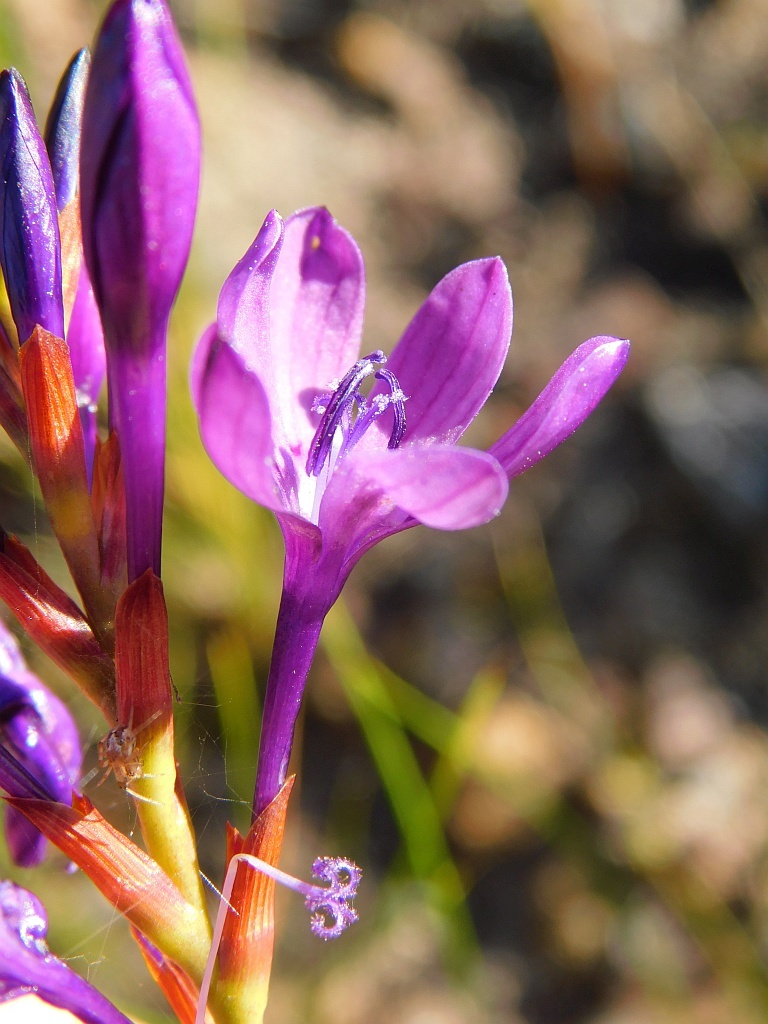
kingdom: Plantae
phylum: Tracheophyta
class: Liliopsida
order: Asparagales
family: Iridaceae
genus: Thereianthus
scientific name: Thereianthus bracteolatus
